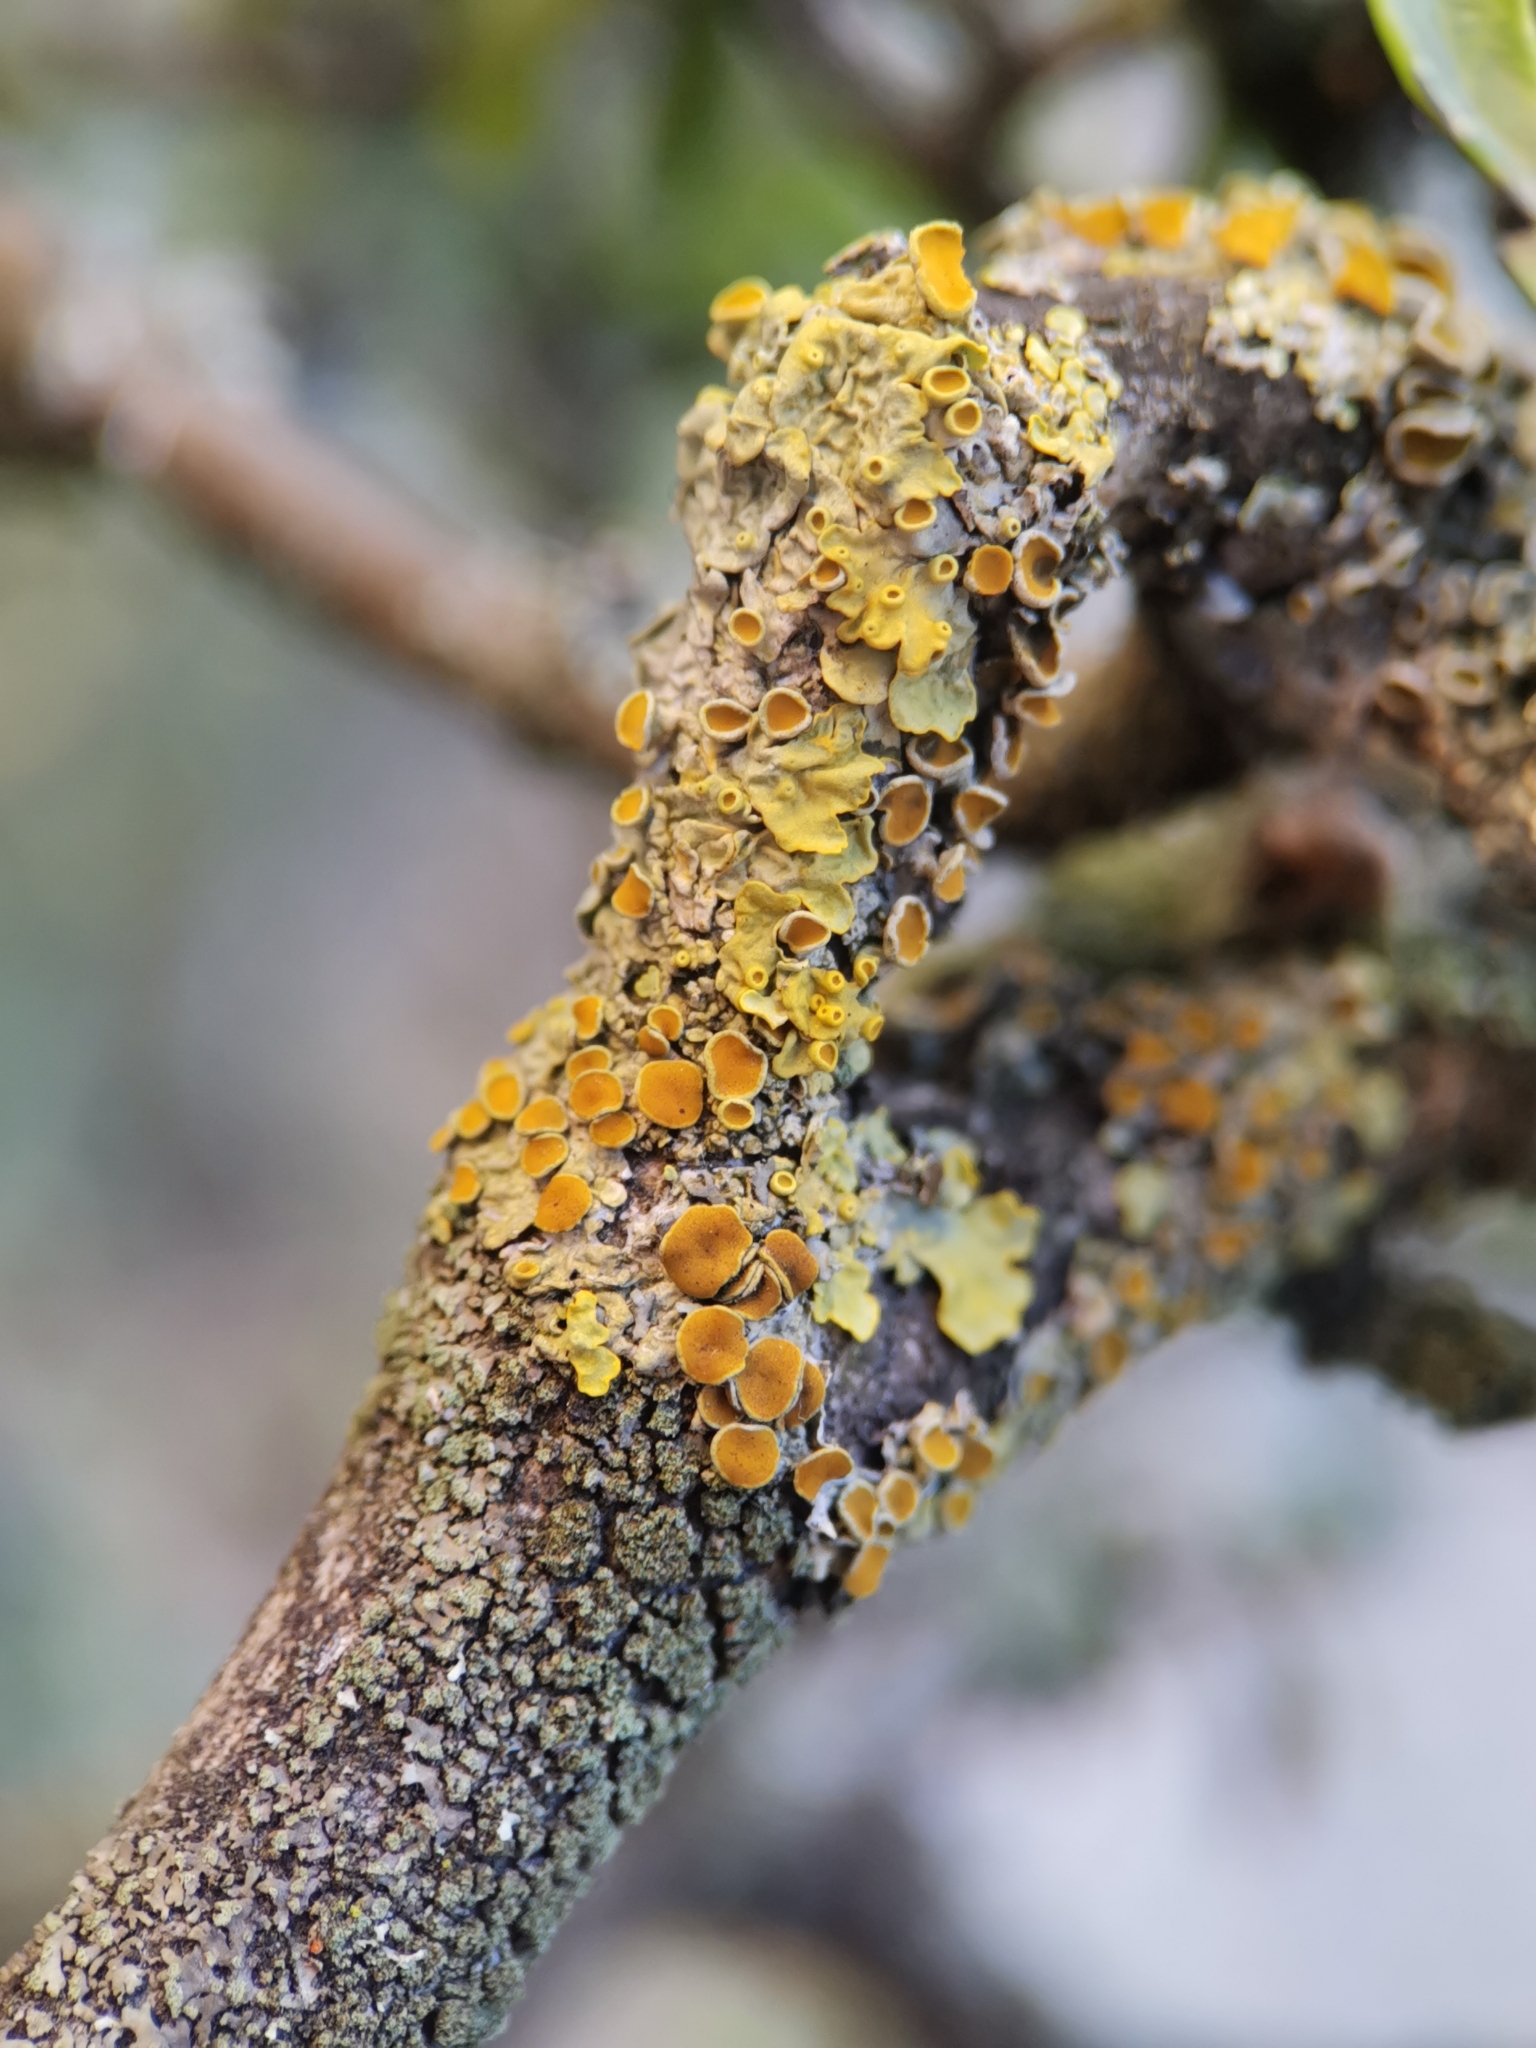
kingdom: Fungi
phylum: Ascomycota
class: Lecanoromycetes
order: Teloschistales
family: Teloschistaceae
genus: Xanthoria
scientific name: Xanthoria parietina
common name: Common orange lichen
